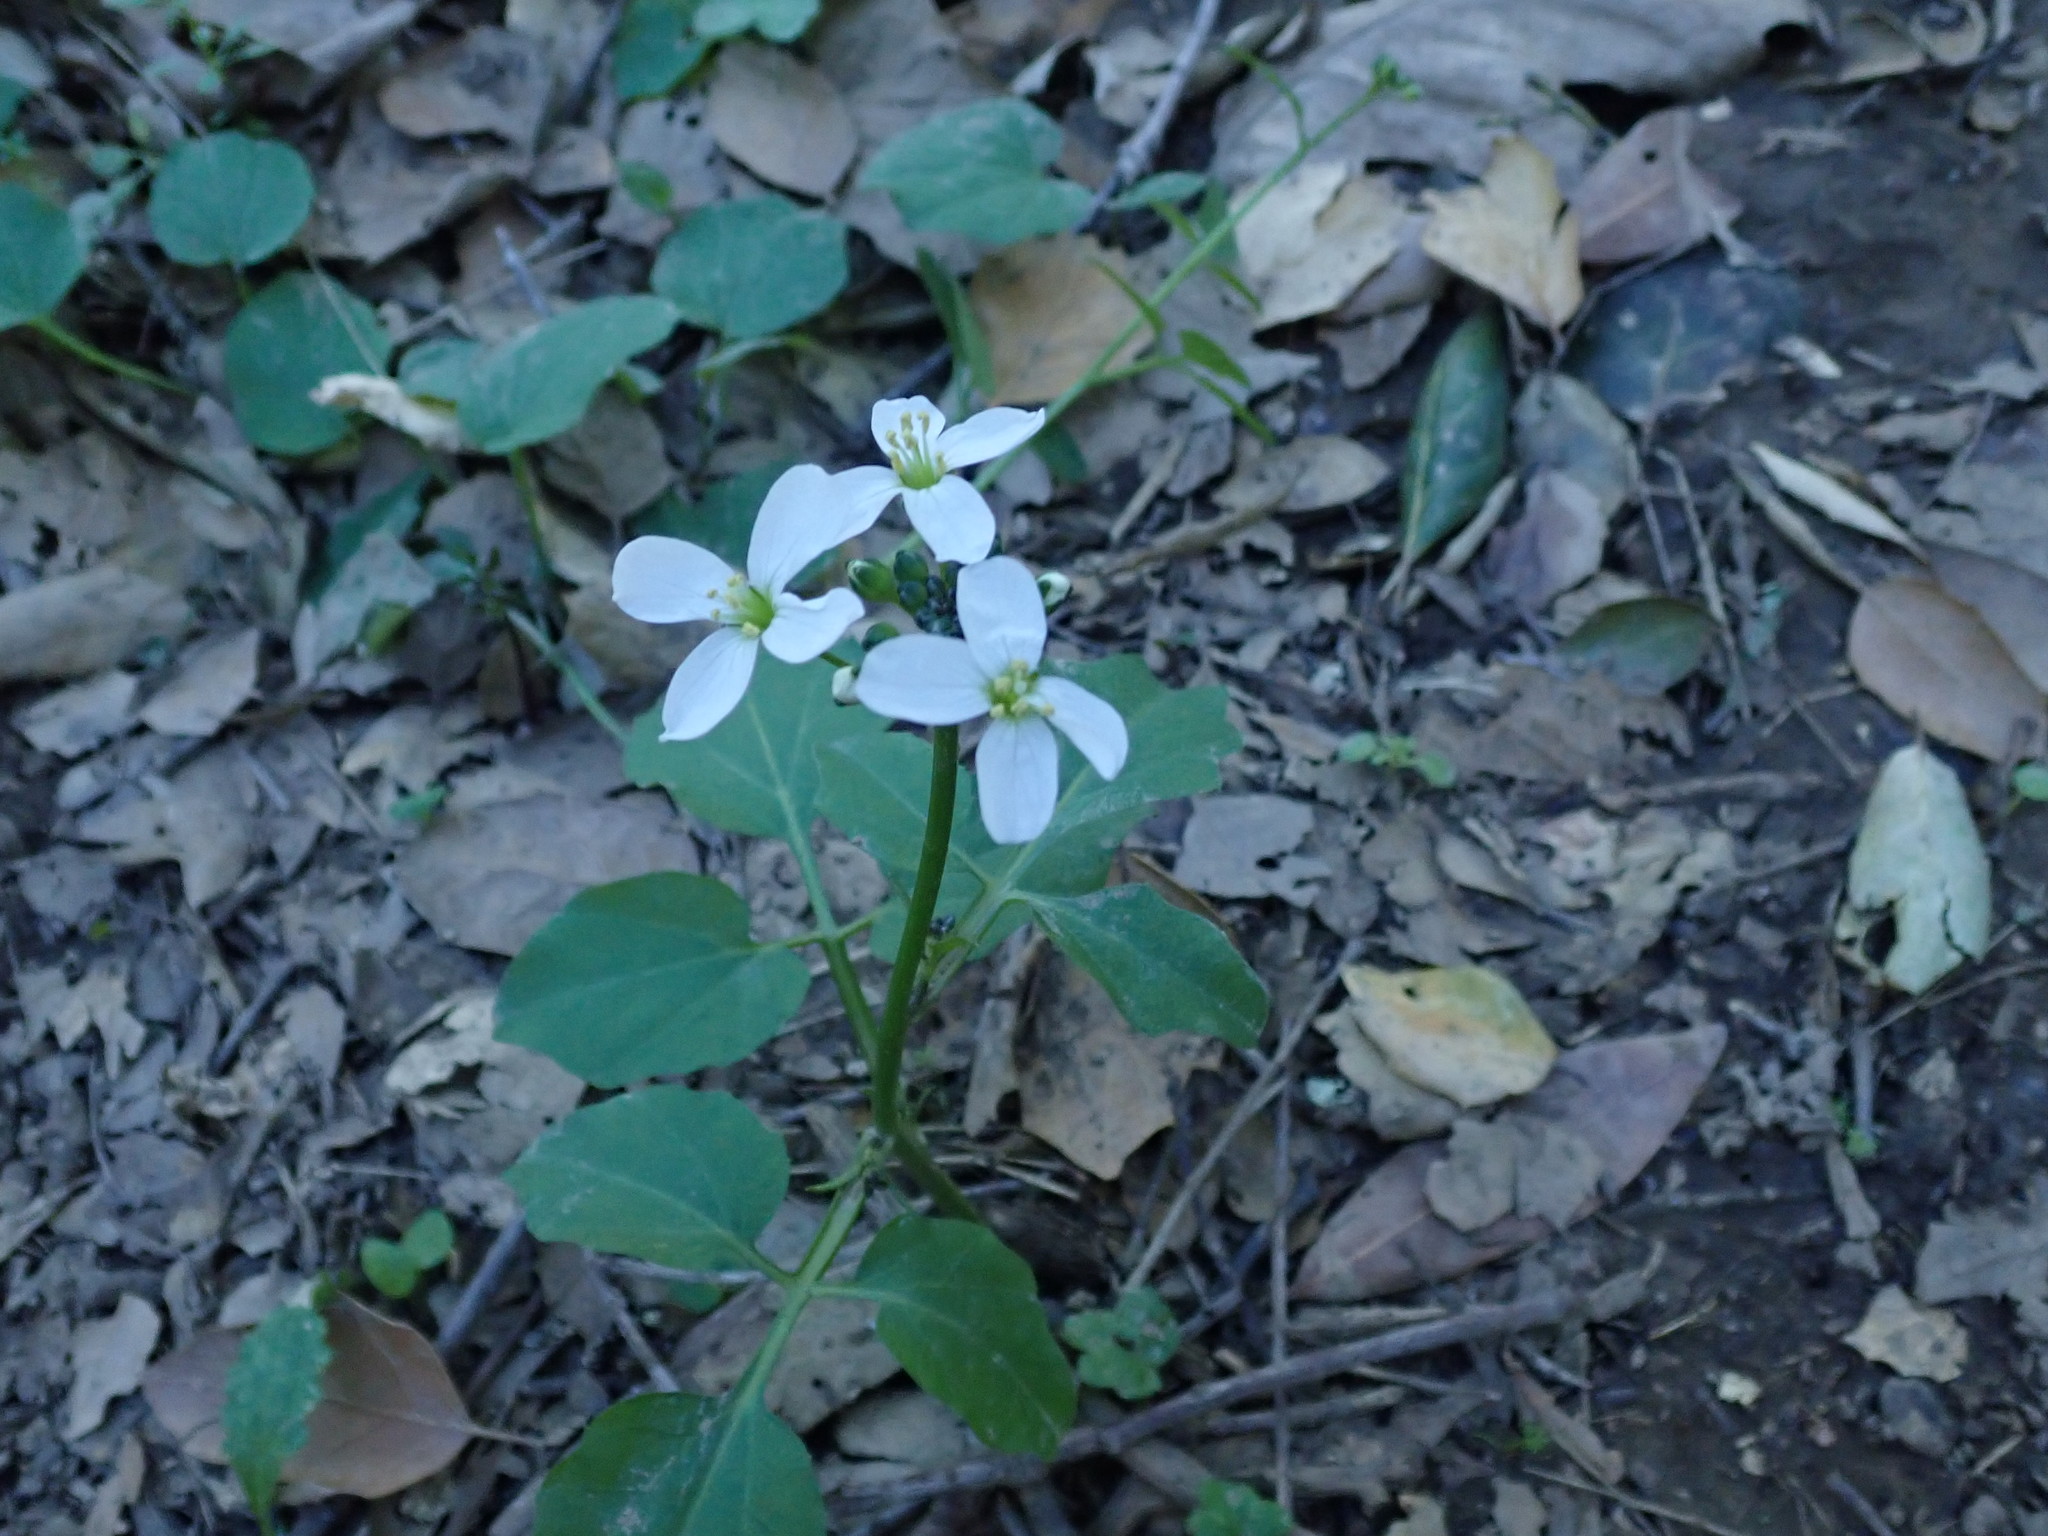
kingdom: Plantae
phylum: Tracheophyta
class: Magnoliopsida
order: Brassicales
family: Brassicaceae
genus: Cardamine
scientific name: Cardamine californica
